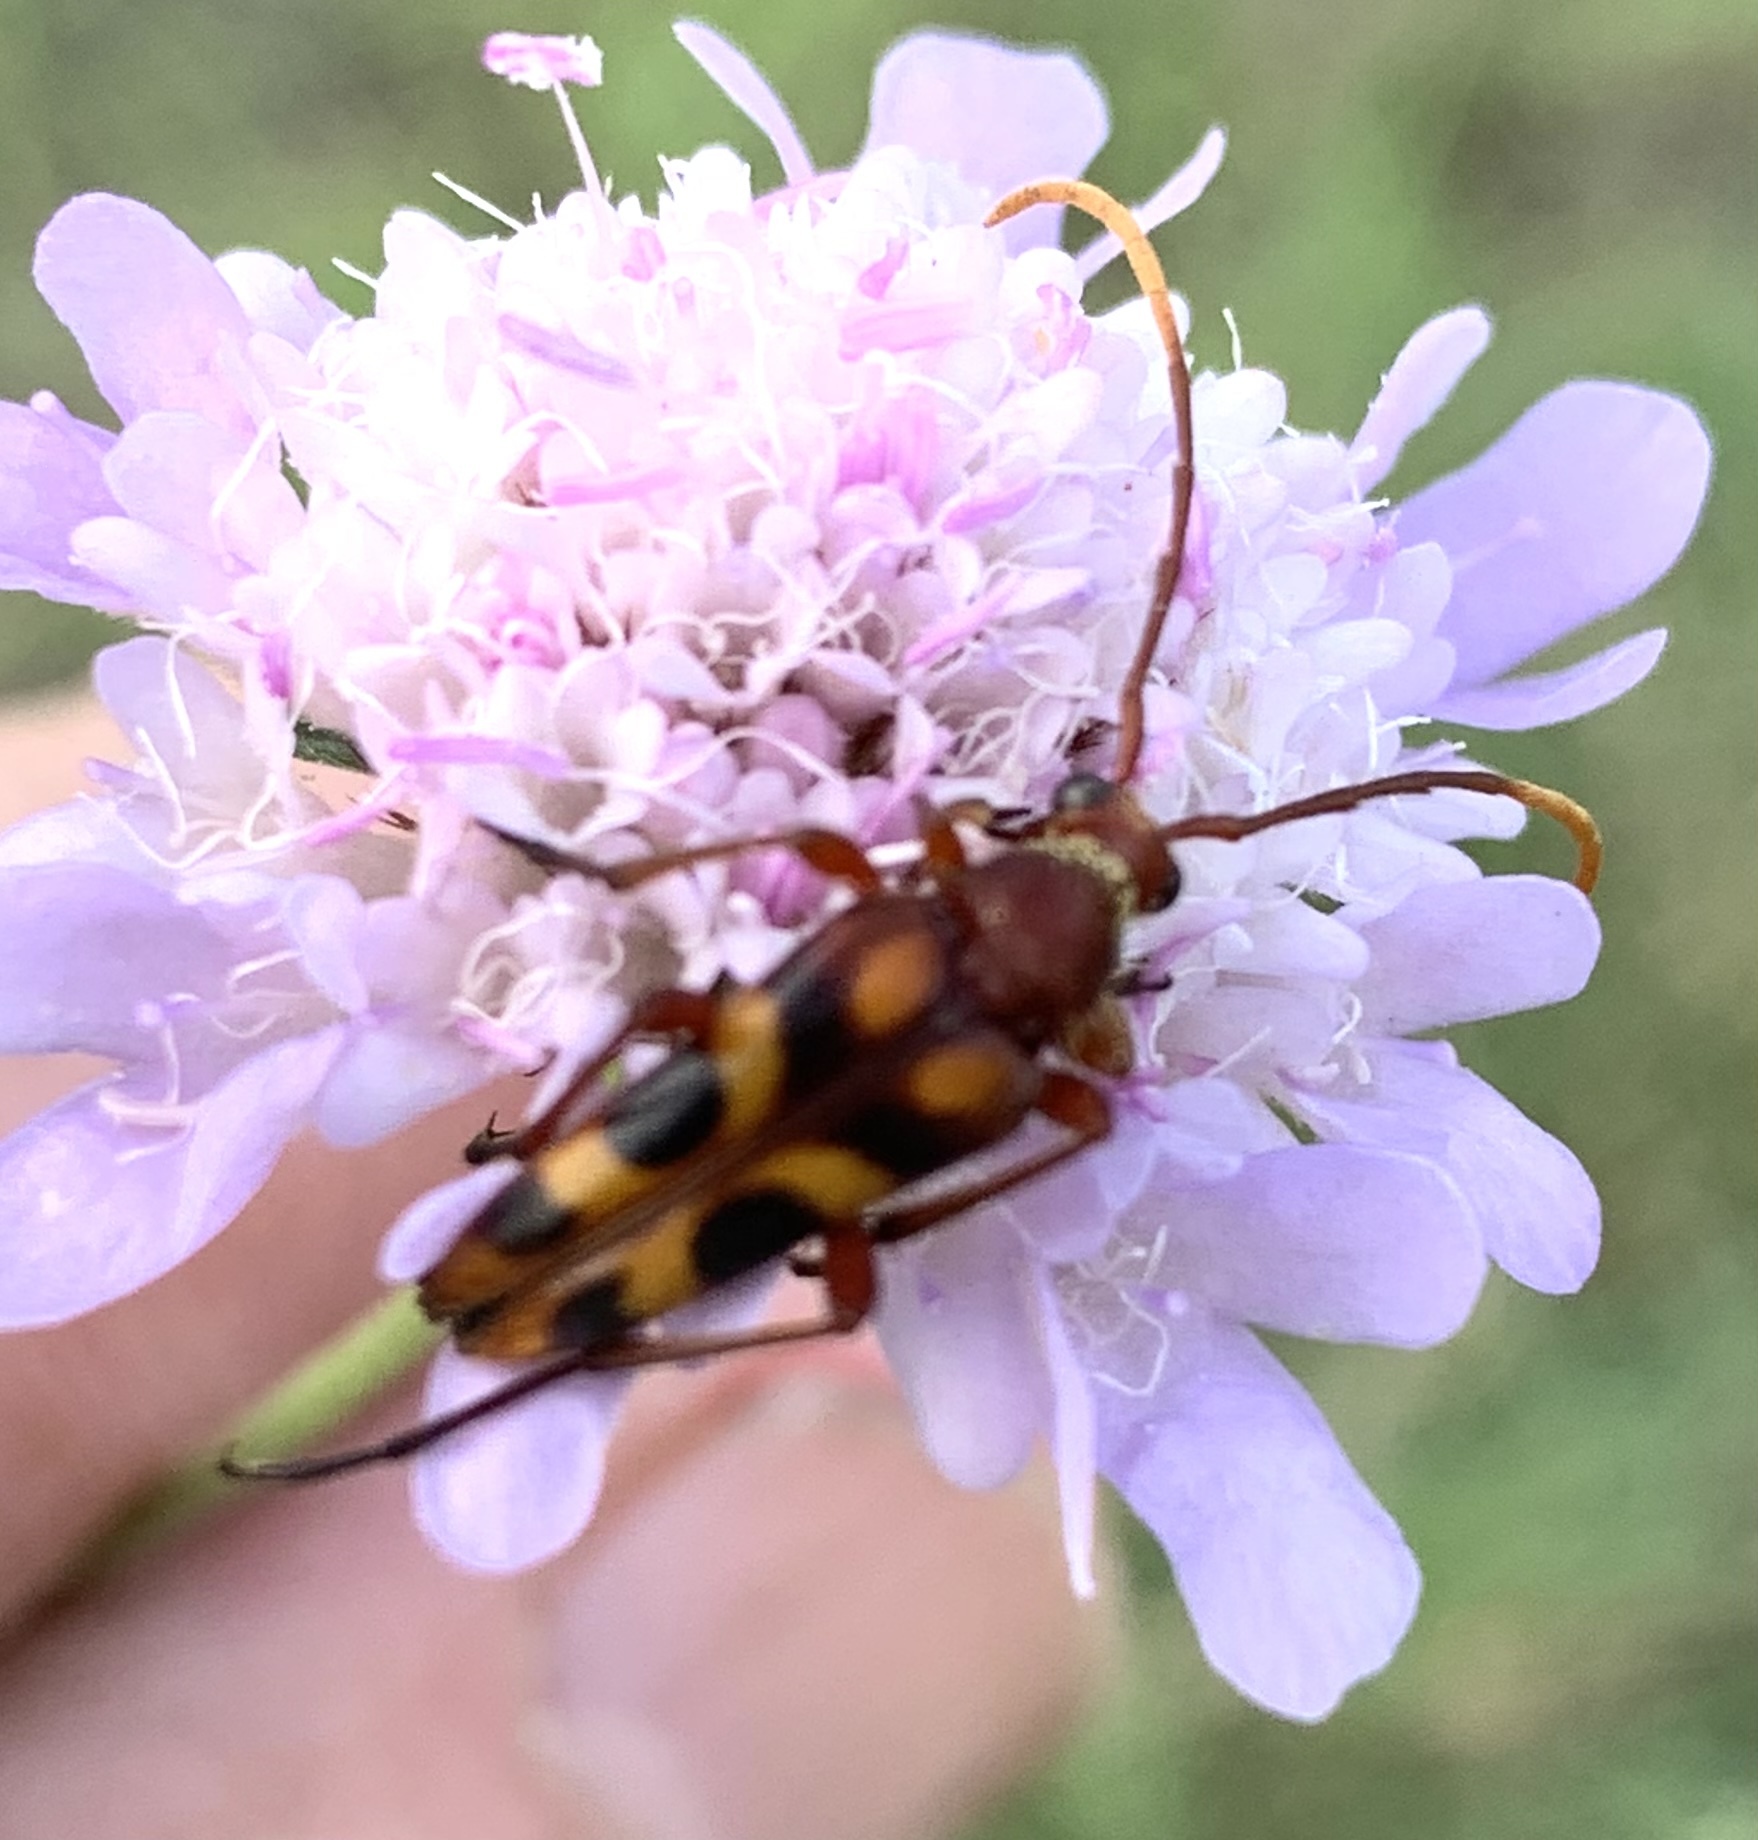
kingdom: Animalia
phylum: Arthropoda
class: Insecta
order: Coleoptera
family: Cerambycidae
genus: Strangalia
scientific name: Strangalia sexnotata
